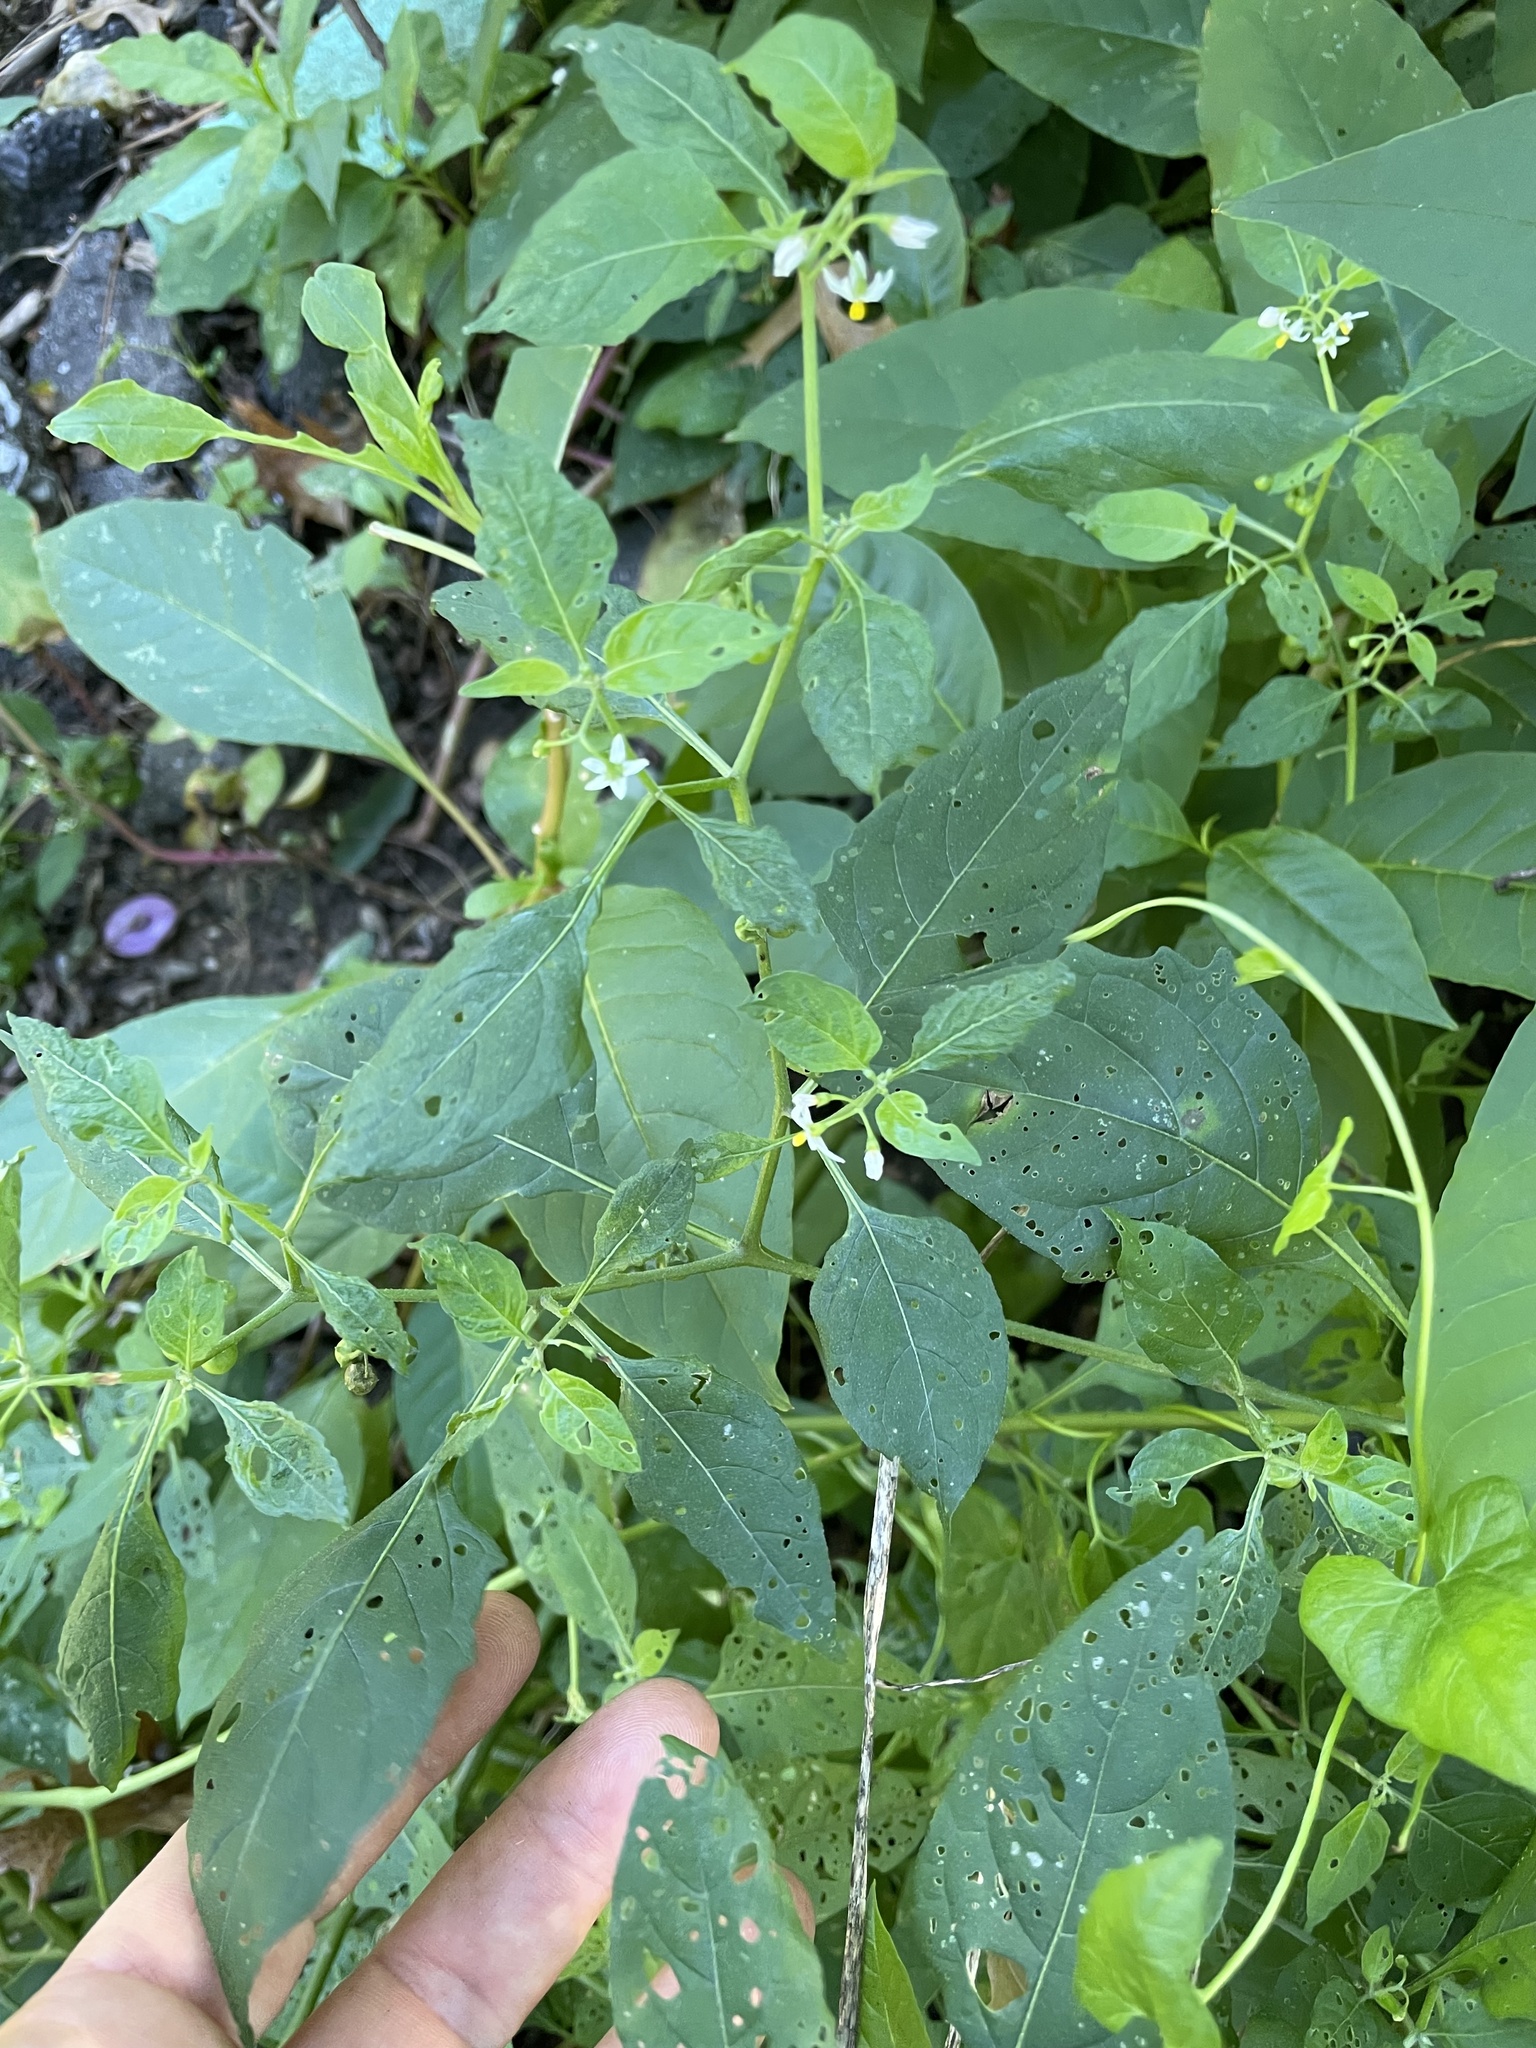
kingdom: Plantae
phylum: Tracheophyta
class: Magnoliopsida
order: Solanales
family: Solanaceae
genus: Solanum
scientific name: Solanum emulans
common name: Eastern black nightshade
